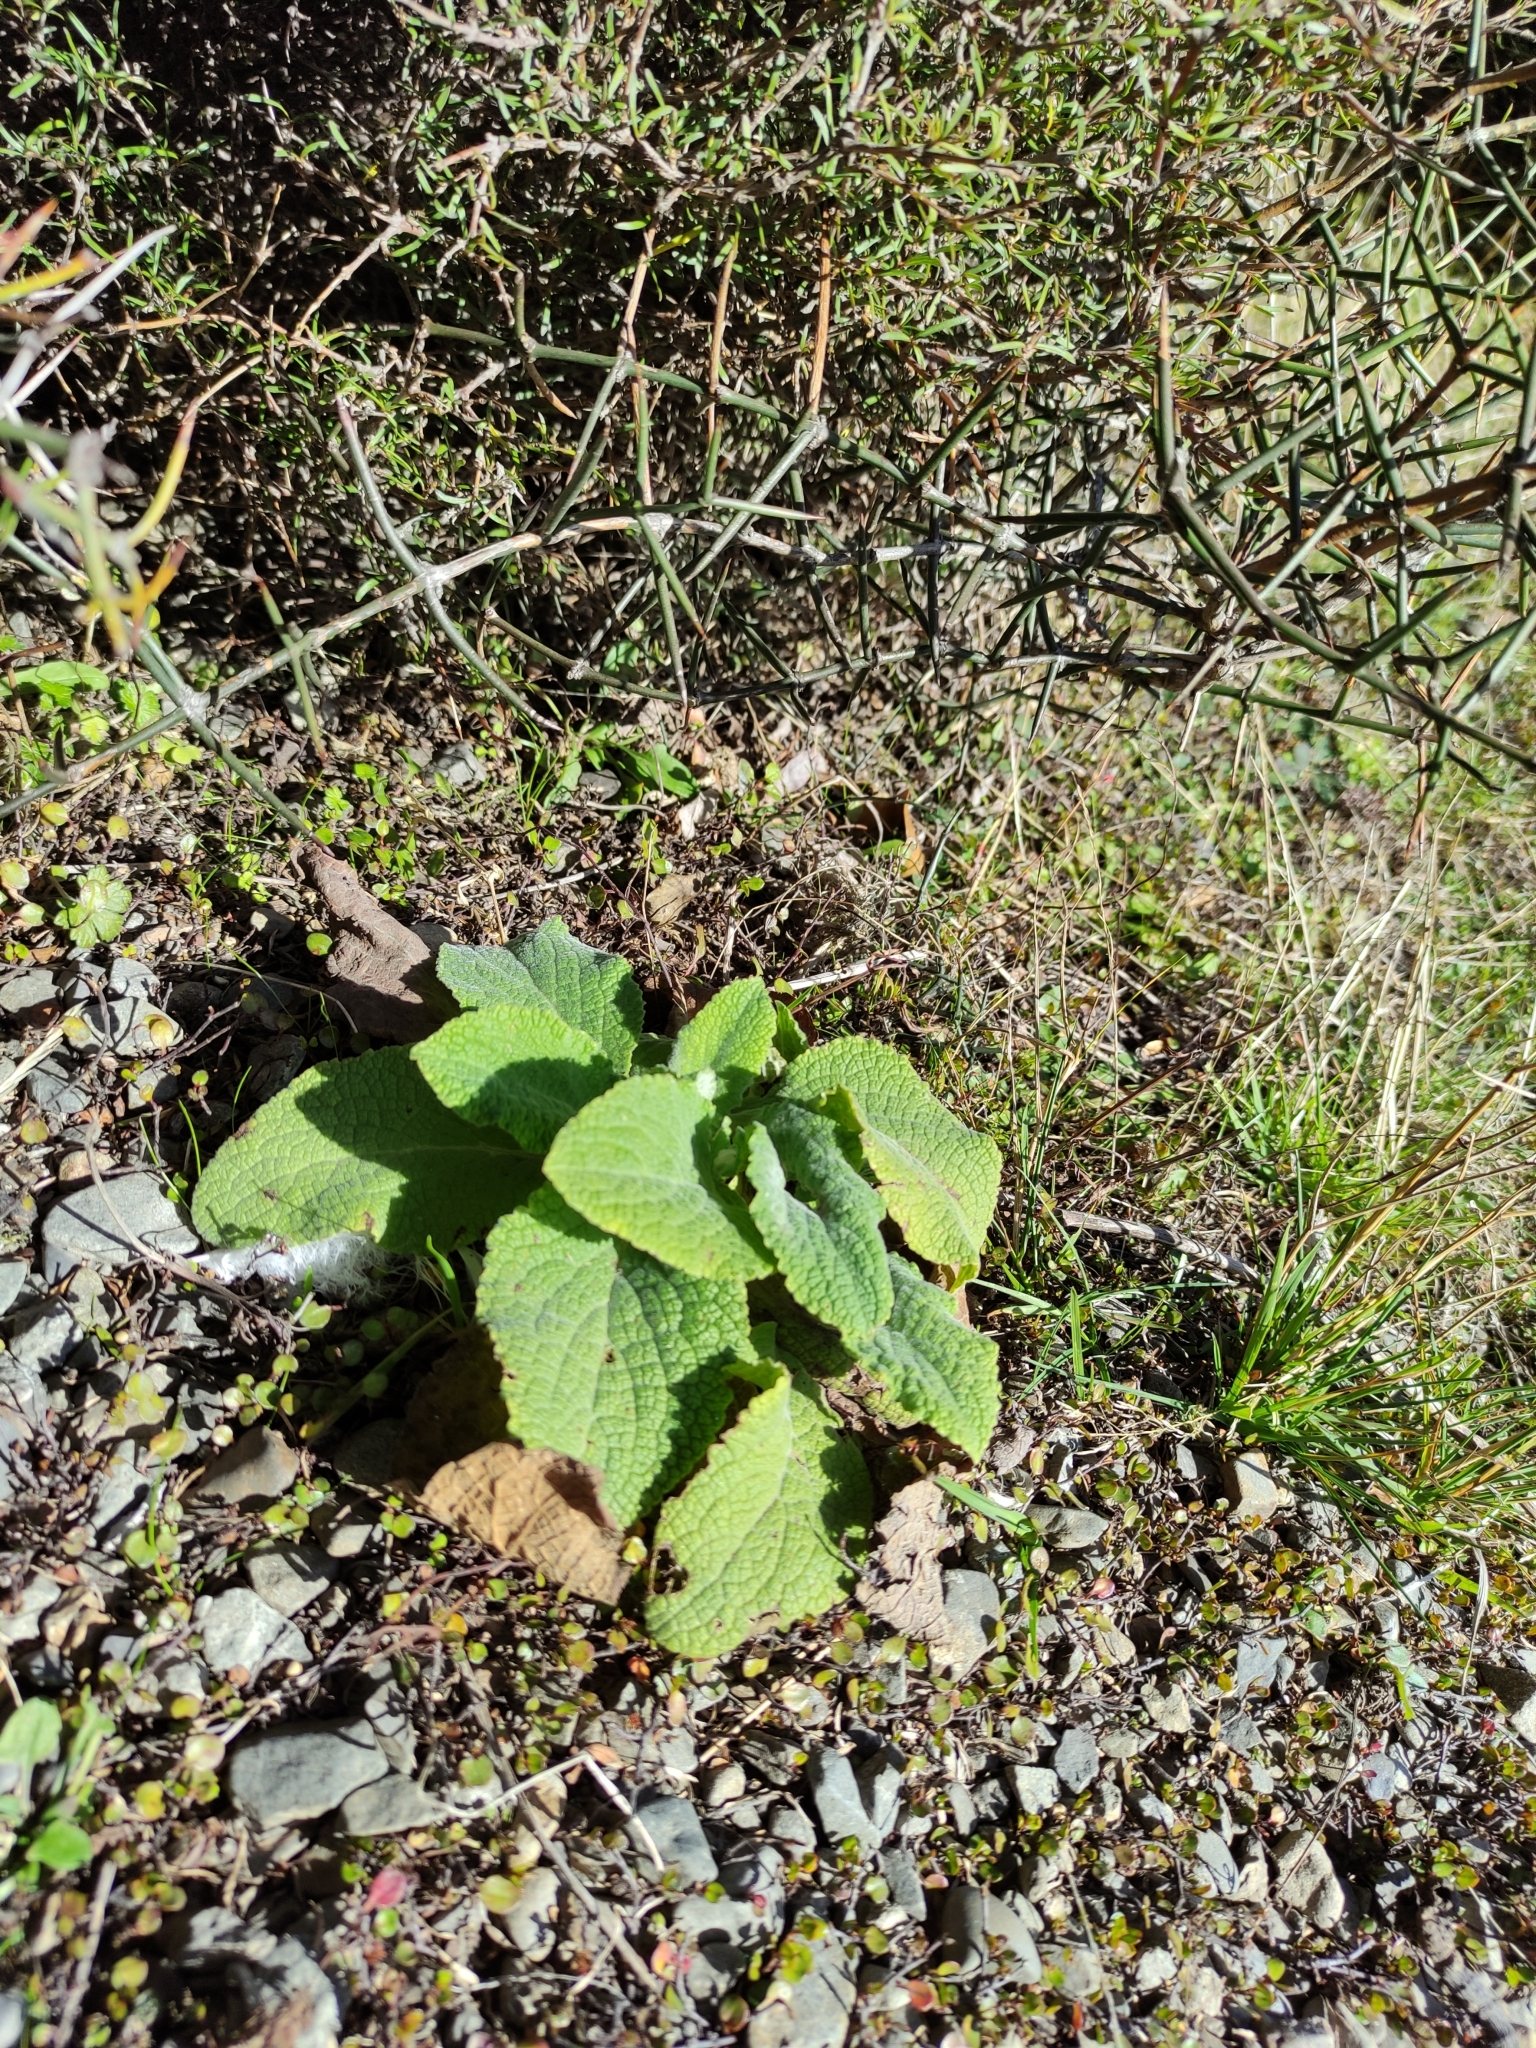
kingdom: Plantae
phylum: Tracheophyta
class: Magnoliopsida
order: Lamiales
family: Plantaginaceae
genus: Digitalis
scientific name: Digitalis purpurea
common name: Foxglove
